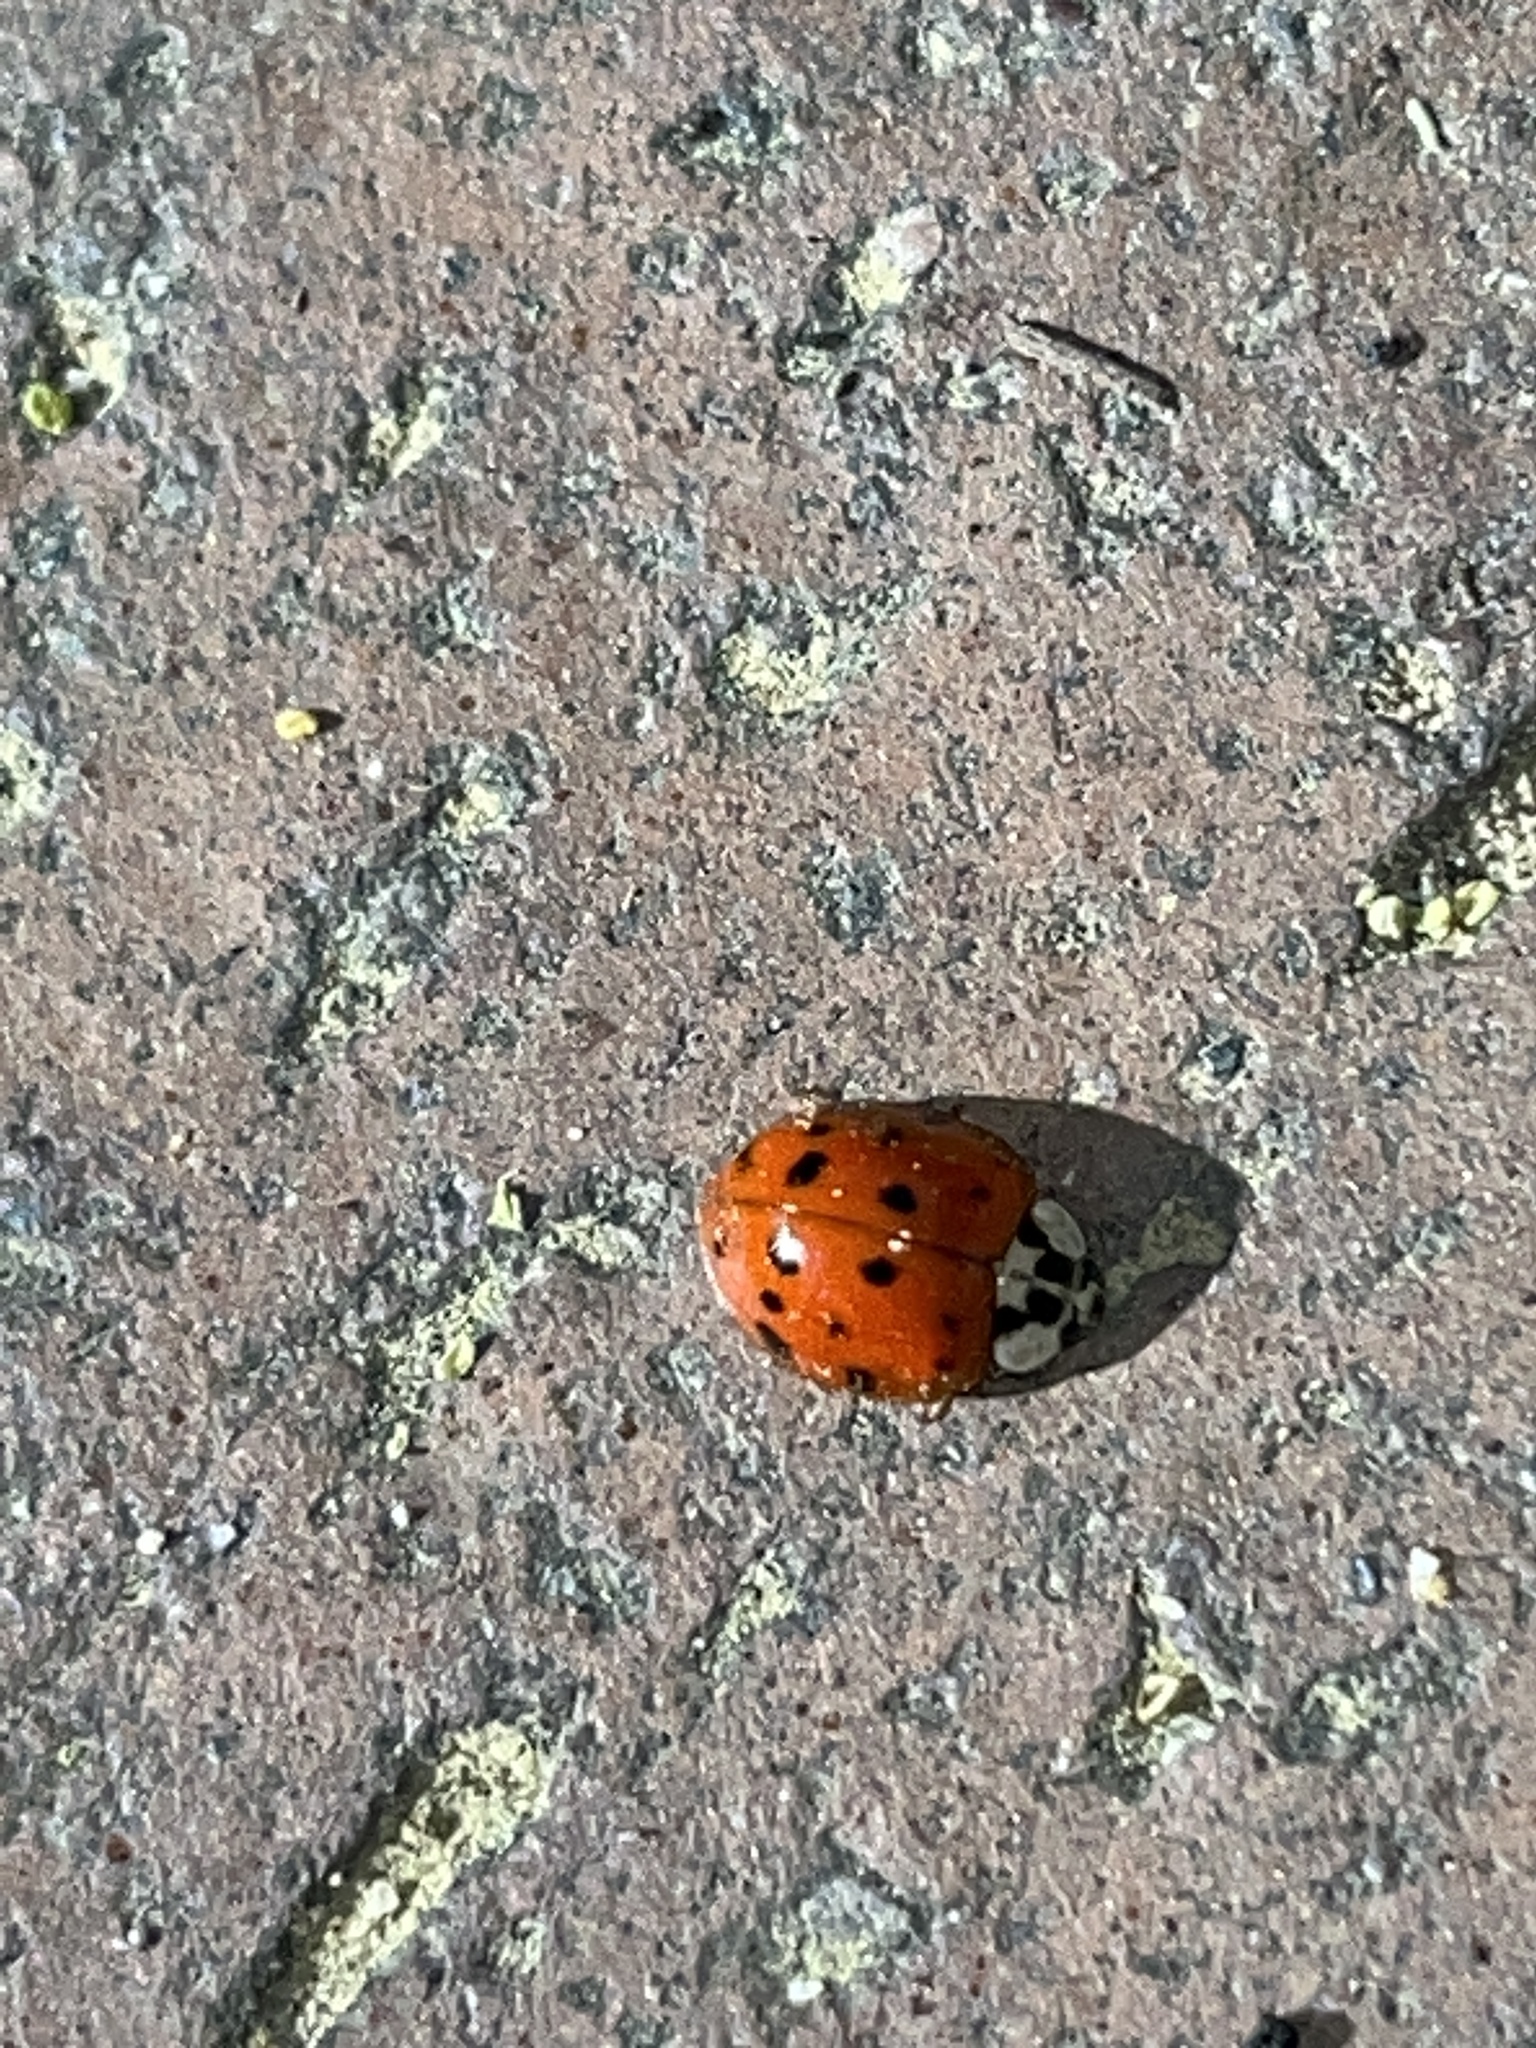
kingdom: Animalia
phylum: Arthropoda
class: Insecta
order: Coleoptera
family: Coccinellidae
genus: Harmonia
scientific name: Harmonia axyridis
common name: Harlequin ladybird
